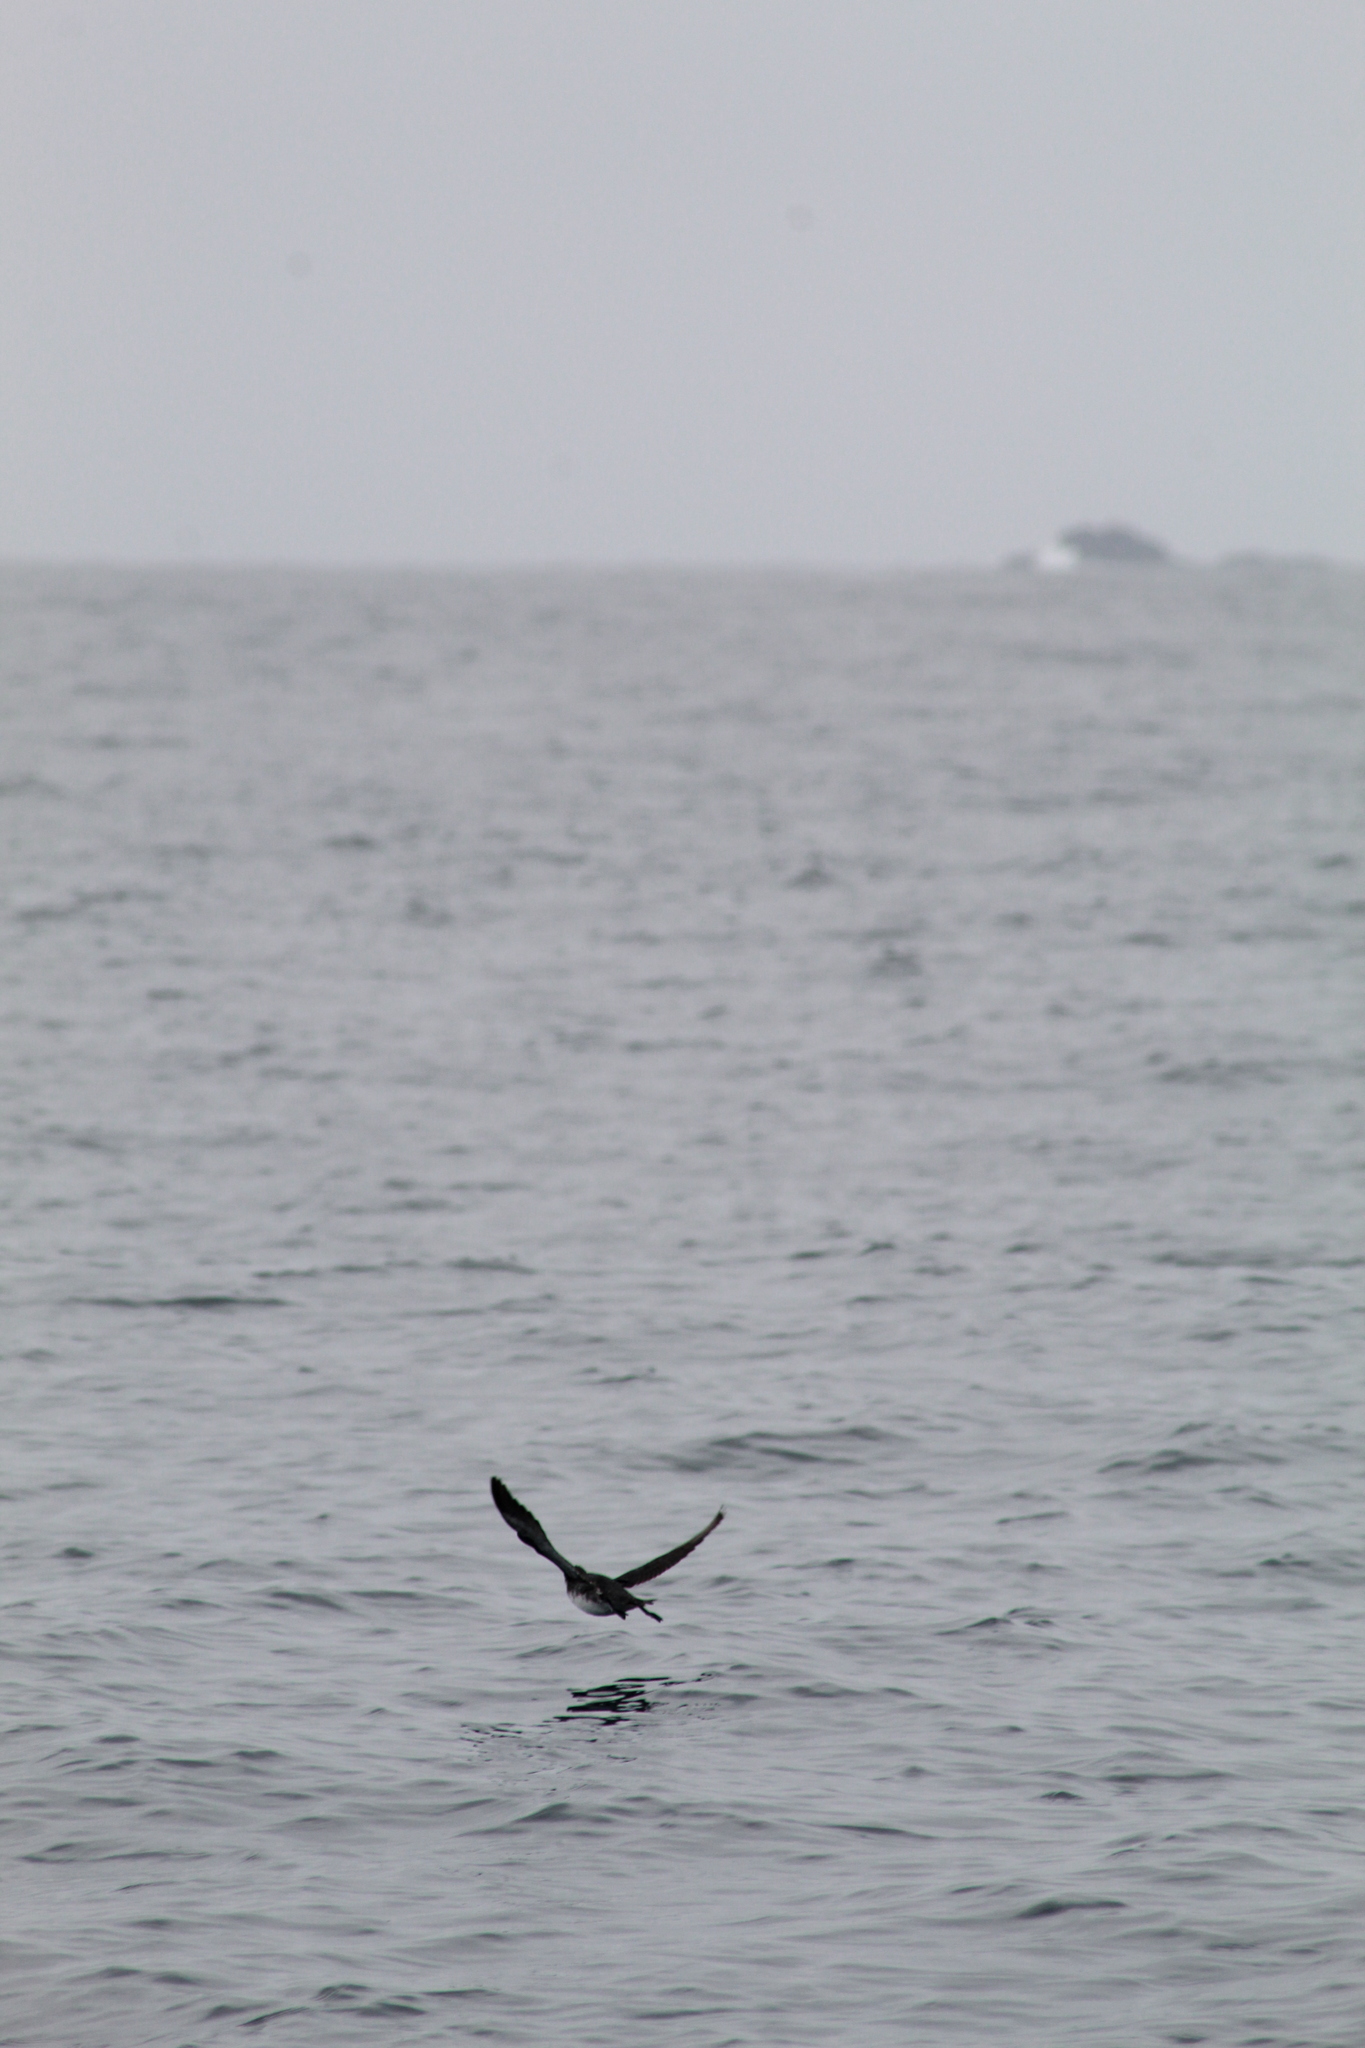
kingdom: Animalia
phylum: Chordata
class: Aves
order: Procellariiformes
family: Pelecanoididae
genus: Pelecanoides
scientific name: Pelecanoides garnotii
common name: Peruvian diving-petrel
